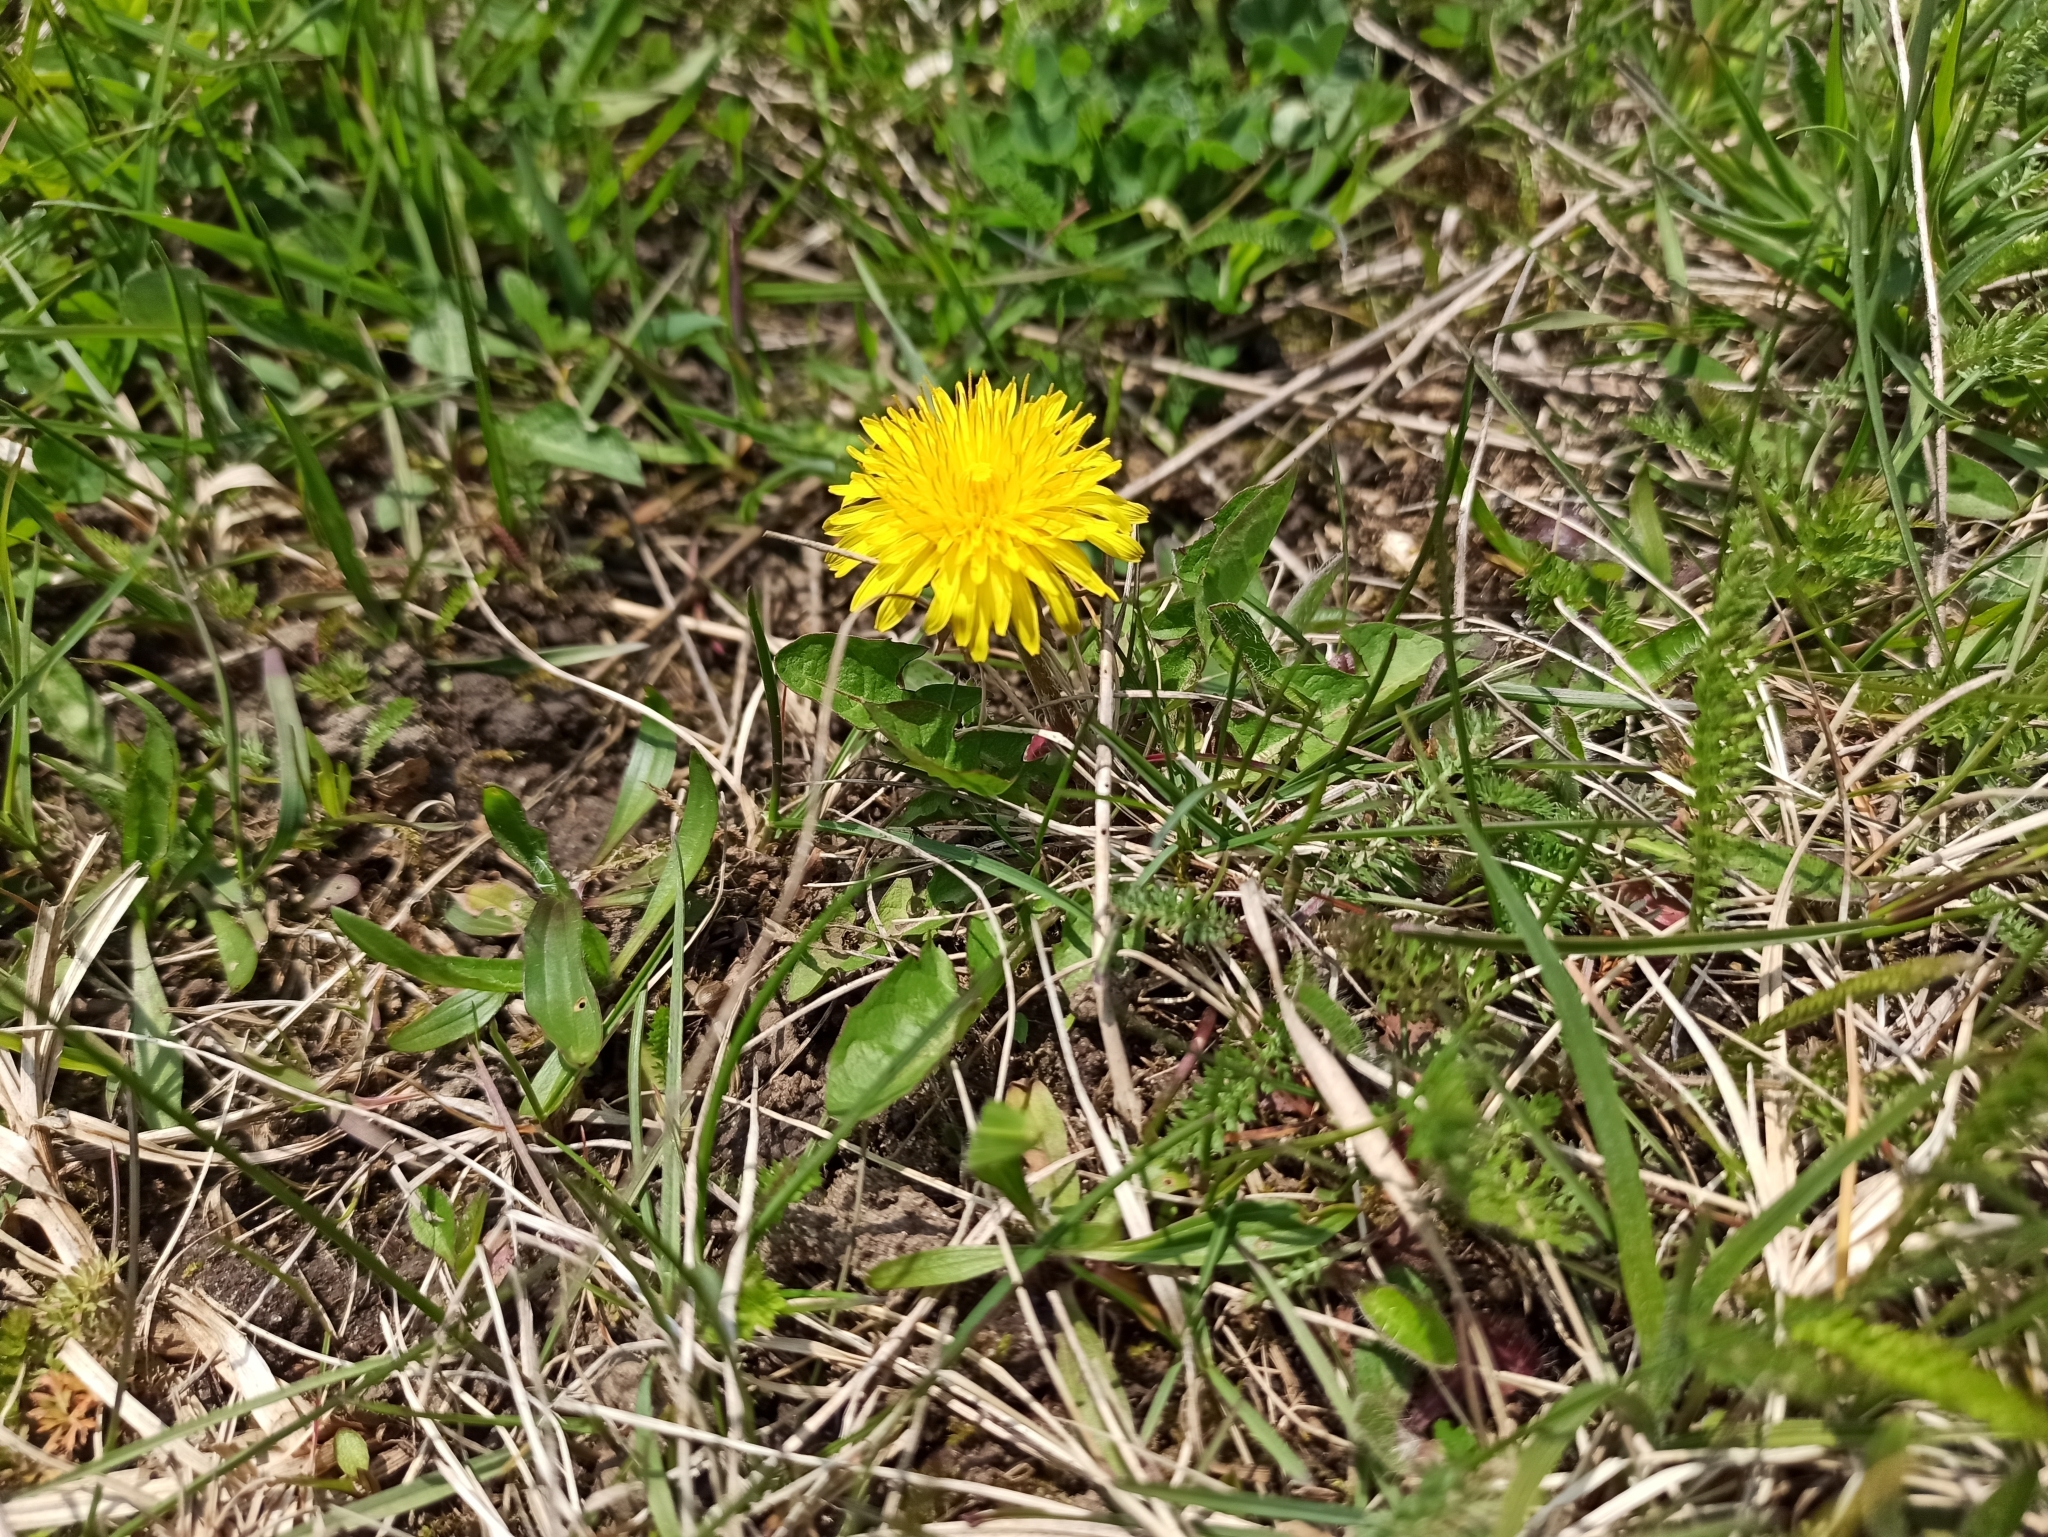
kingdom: Plantae
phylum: Tracheophyta
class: Magnoliopsida
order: Asterales
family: Asteraceae
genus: Taraxacum
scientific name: Taraxacum officinale
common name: Common dandelion
